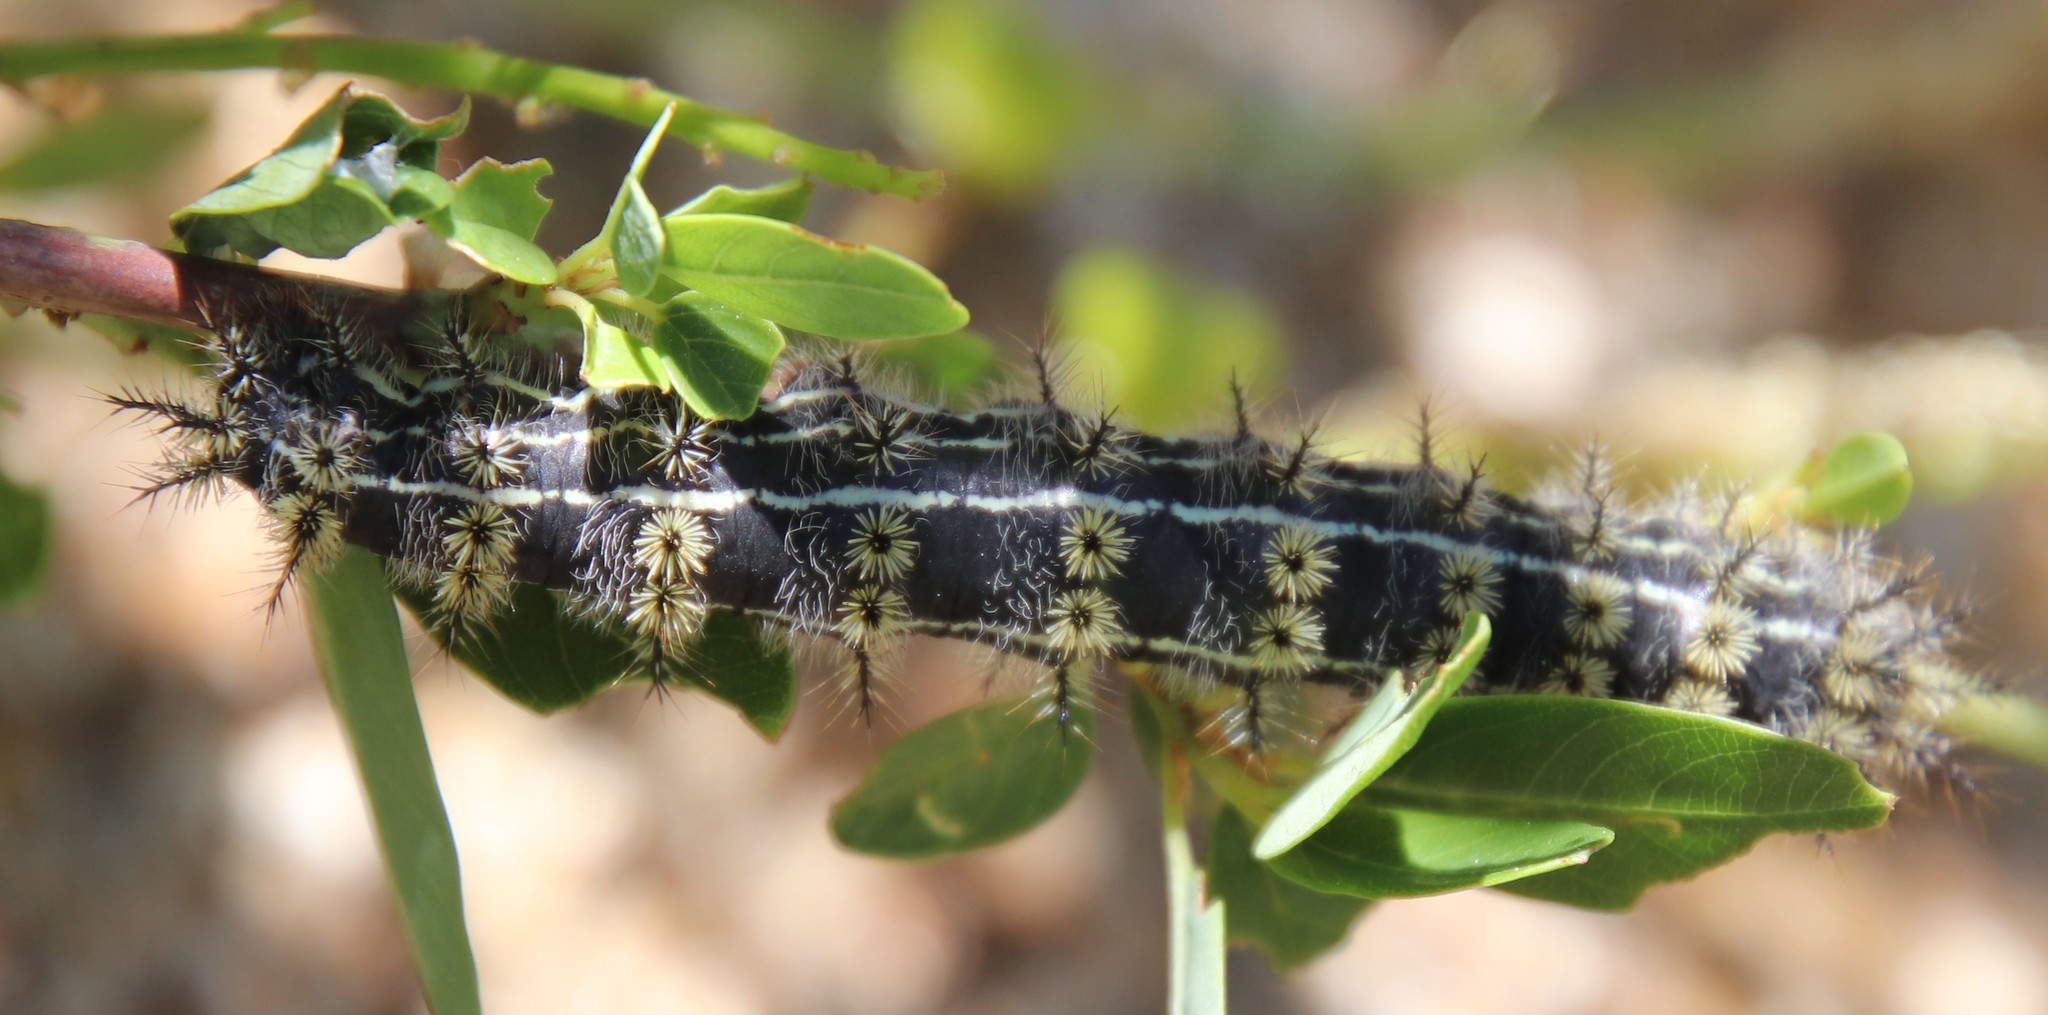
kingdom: Animalia
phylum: Arthropoda
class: Insecta
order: Lepidoptera
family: Saturniidae
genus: Hemileuca
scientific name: Hemileuca eglanterina
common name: Western sheepmoth
